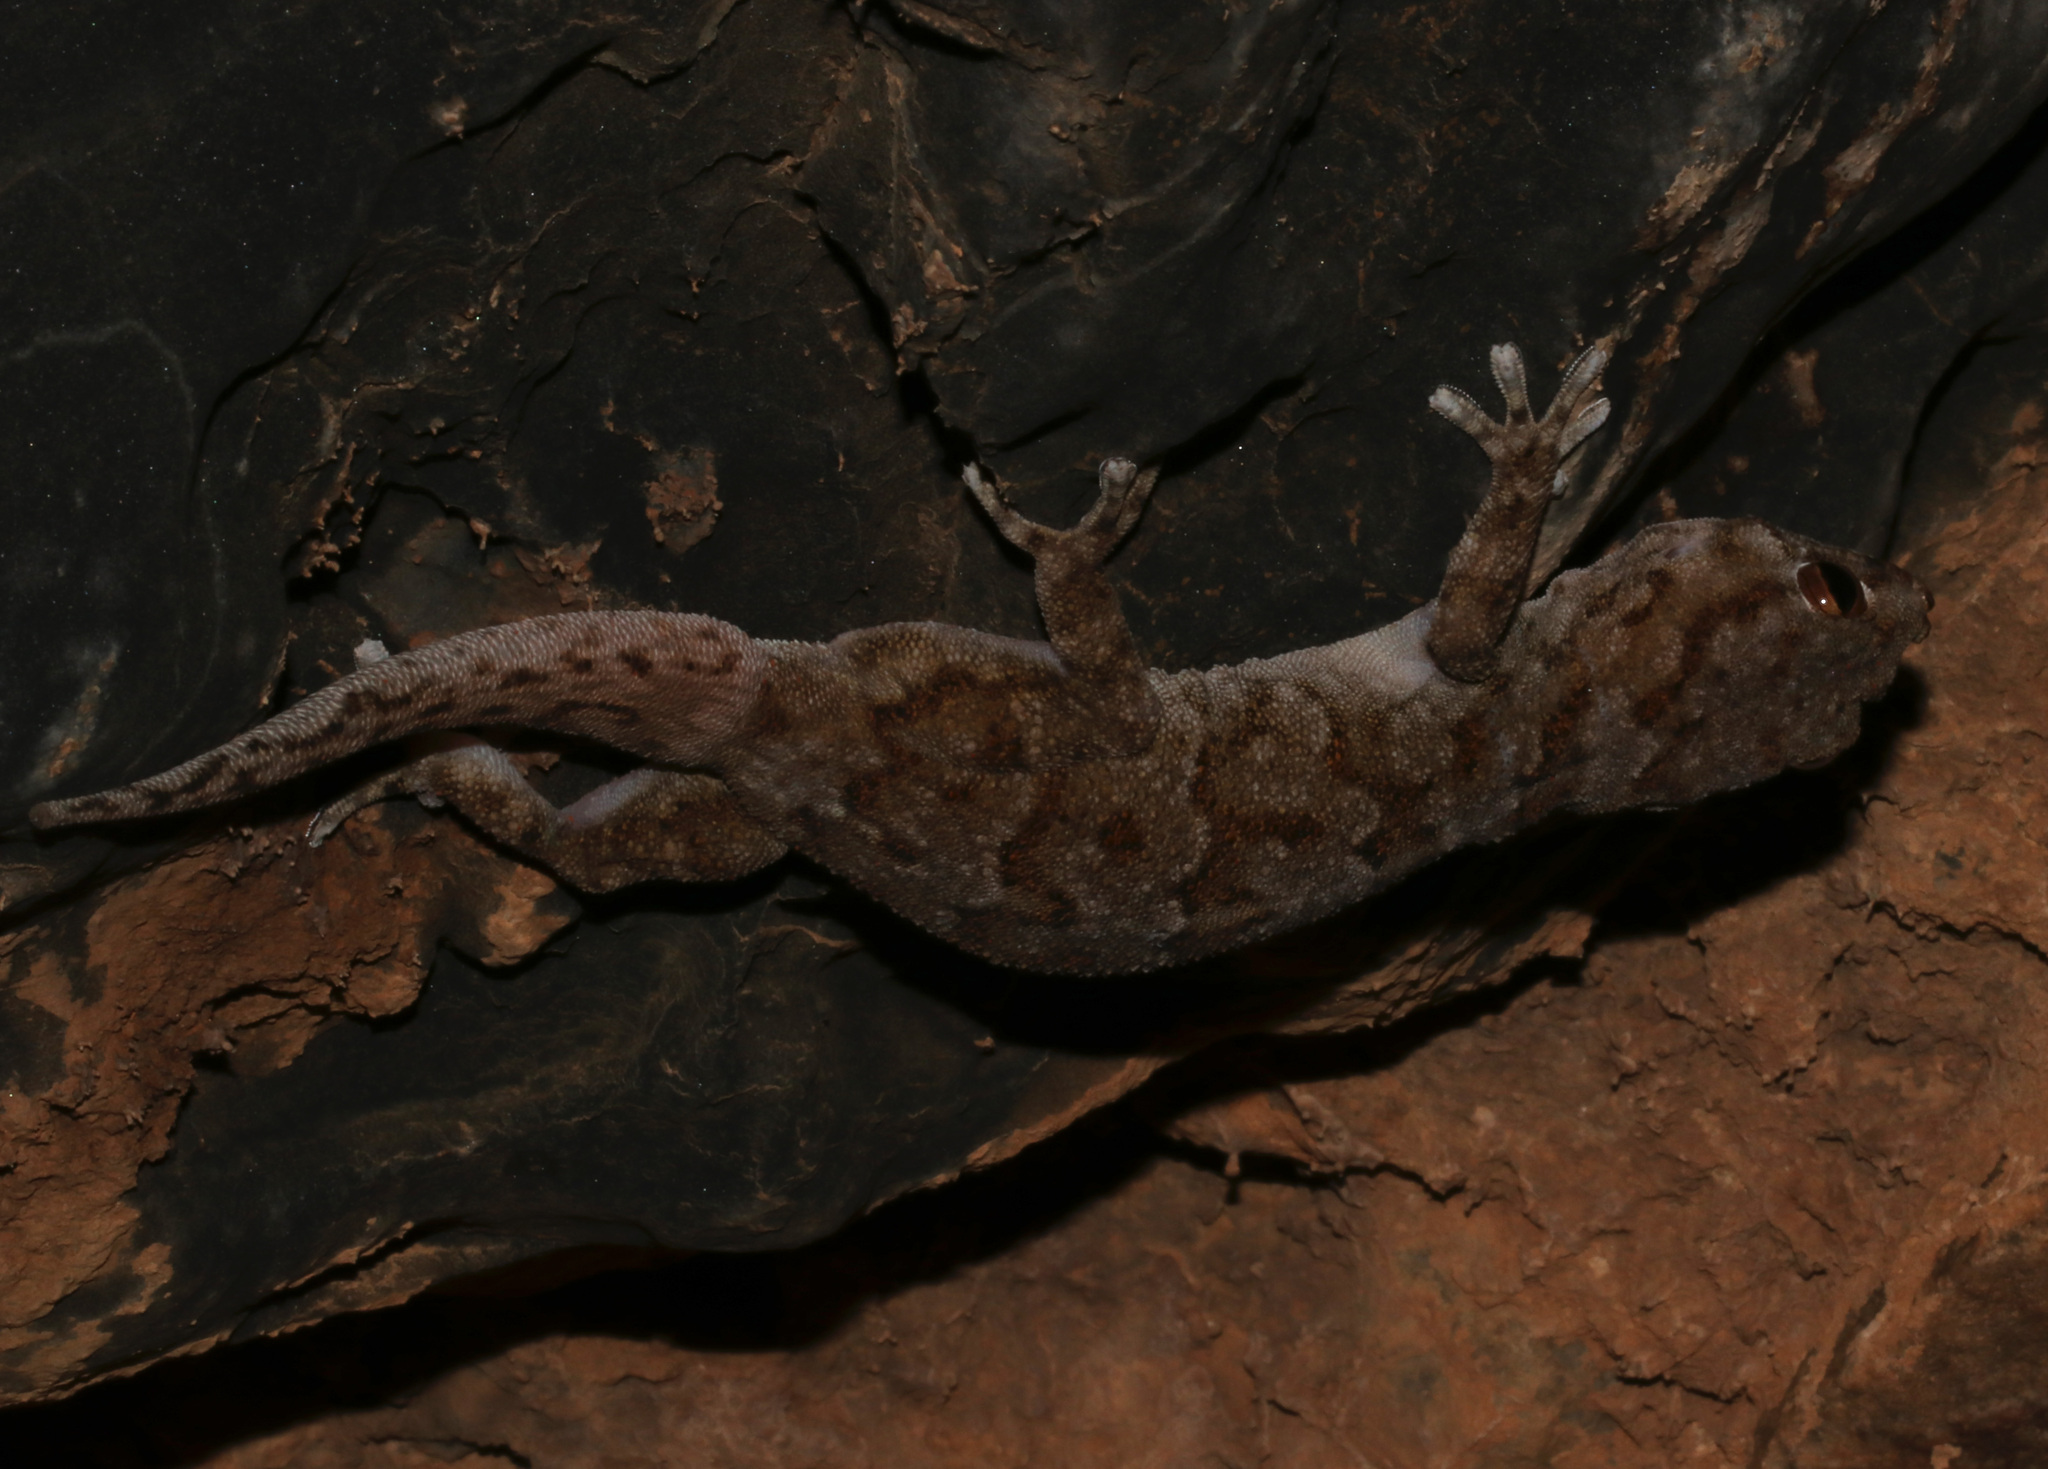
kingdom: Animalia
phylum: Chordata
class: Squamata
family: Gekkonidae
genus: Pachydactylus
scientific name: Pachydactylus haackei
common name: Haacke's gecko
